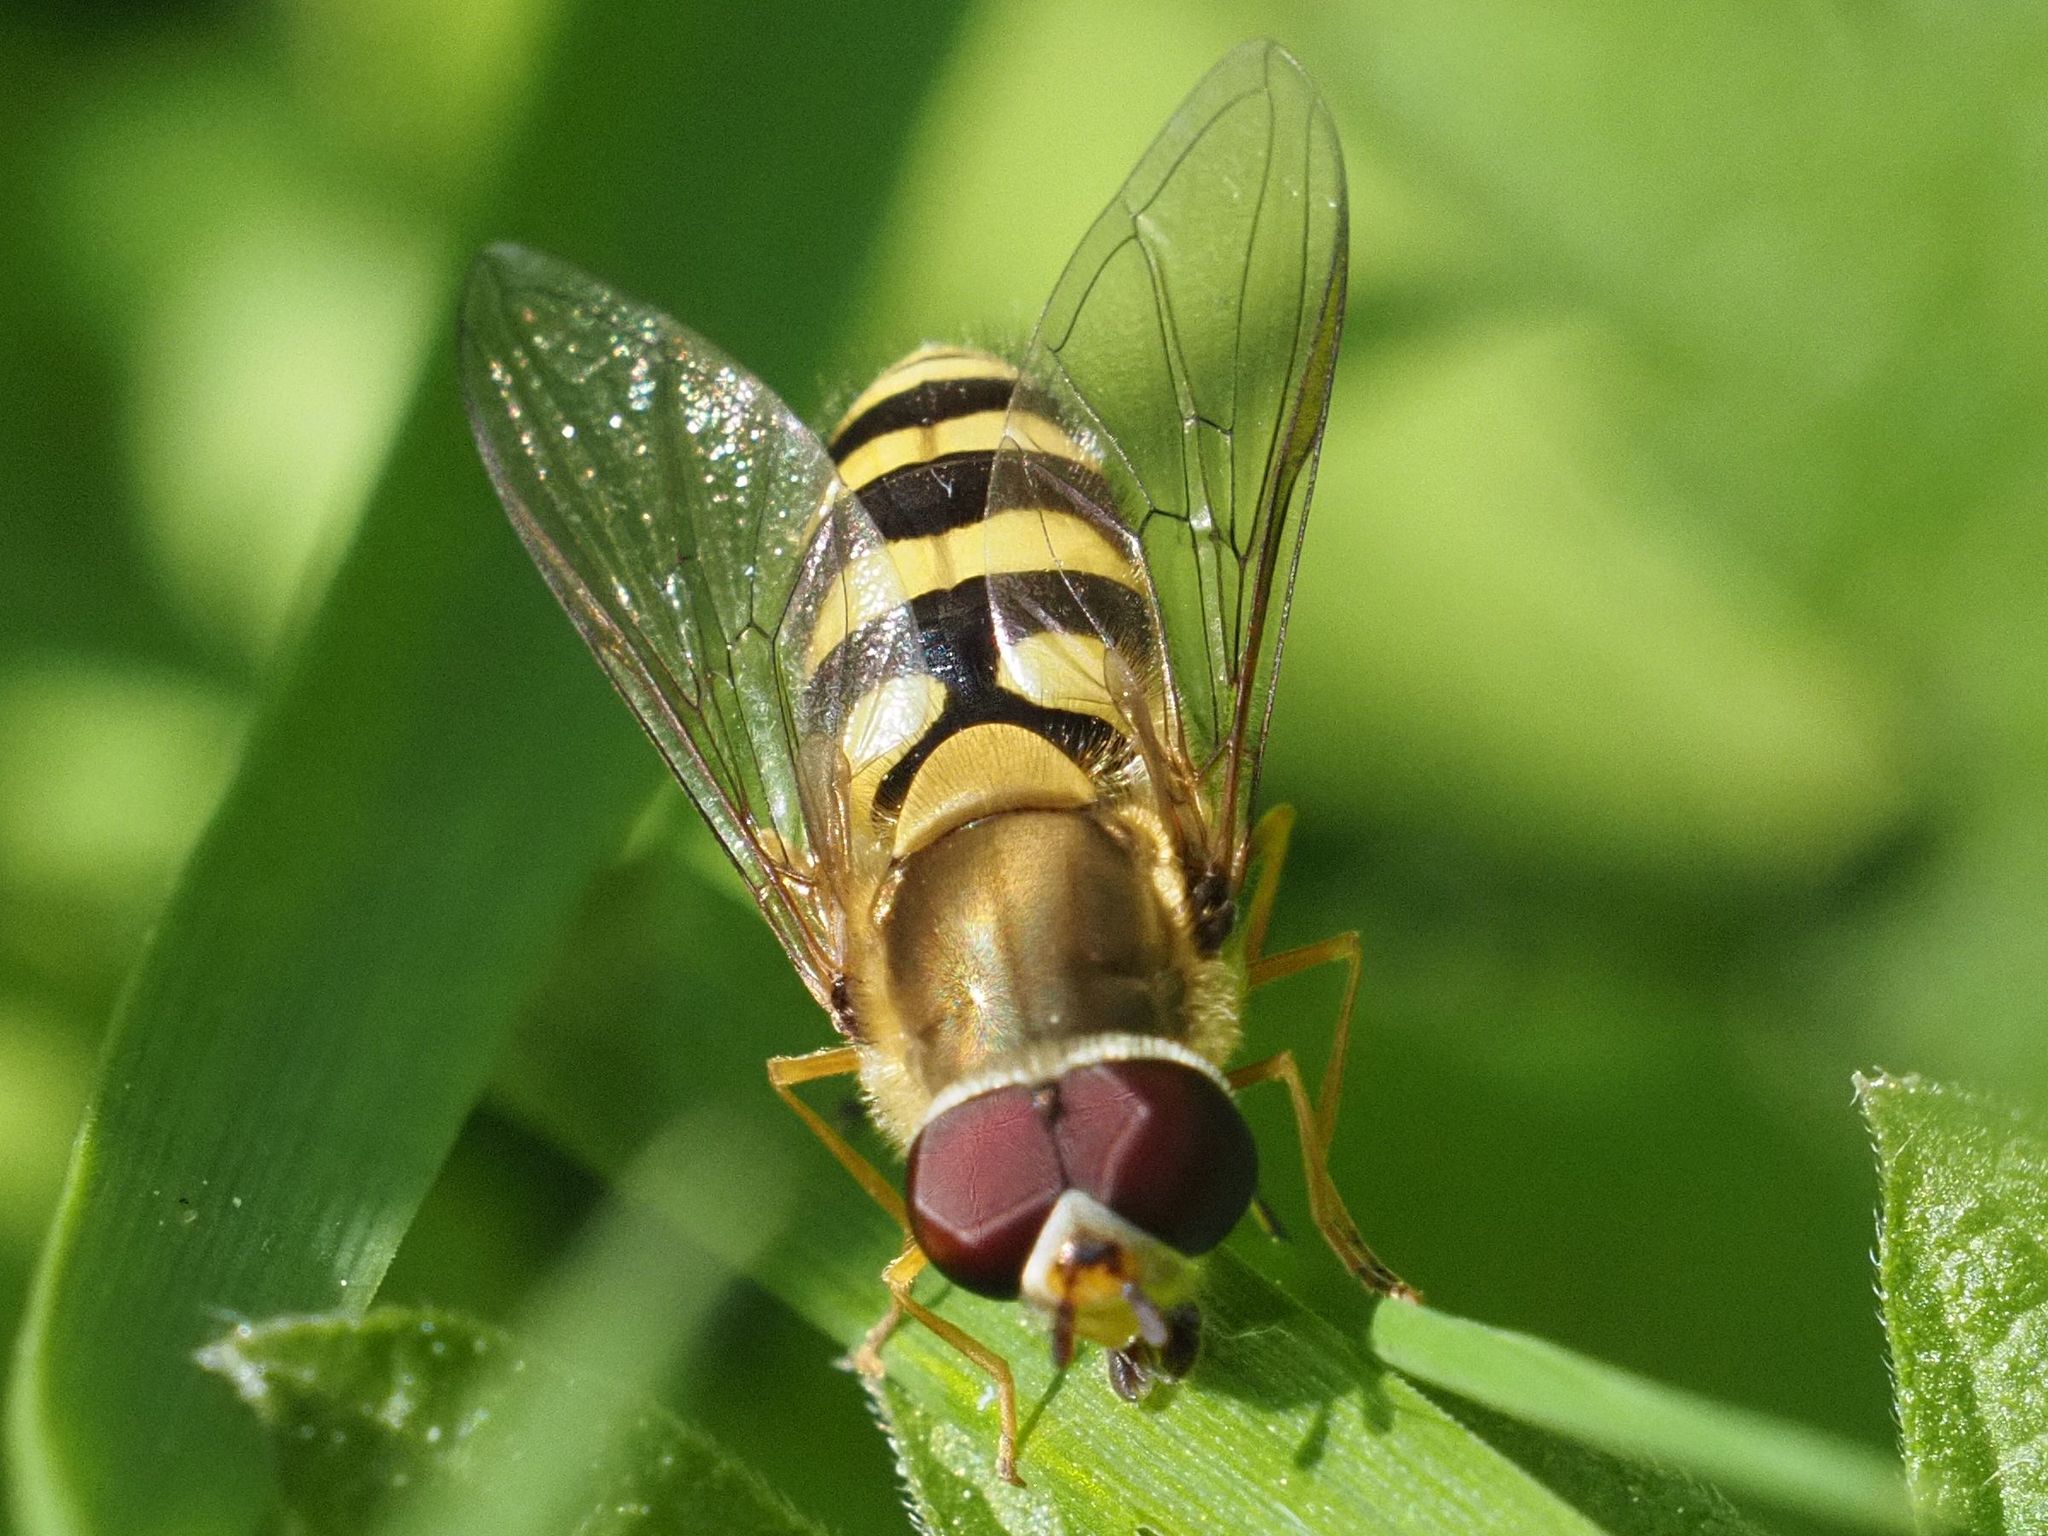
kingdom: Animalia
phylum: Arthropoda
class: Insecta
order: Diptera
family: Syrphidae
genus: Syrphus
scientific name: Syrphus
